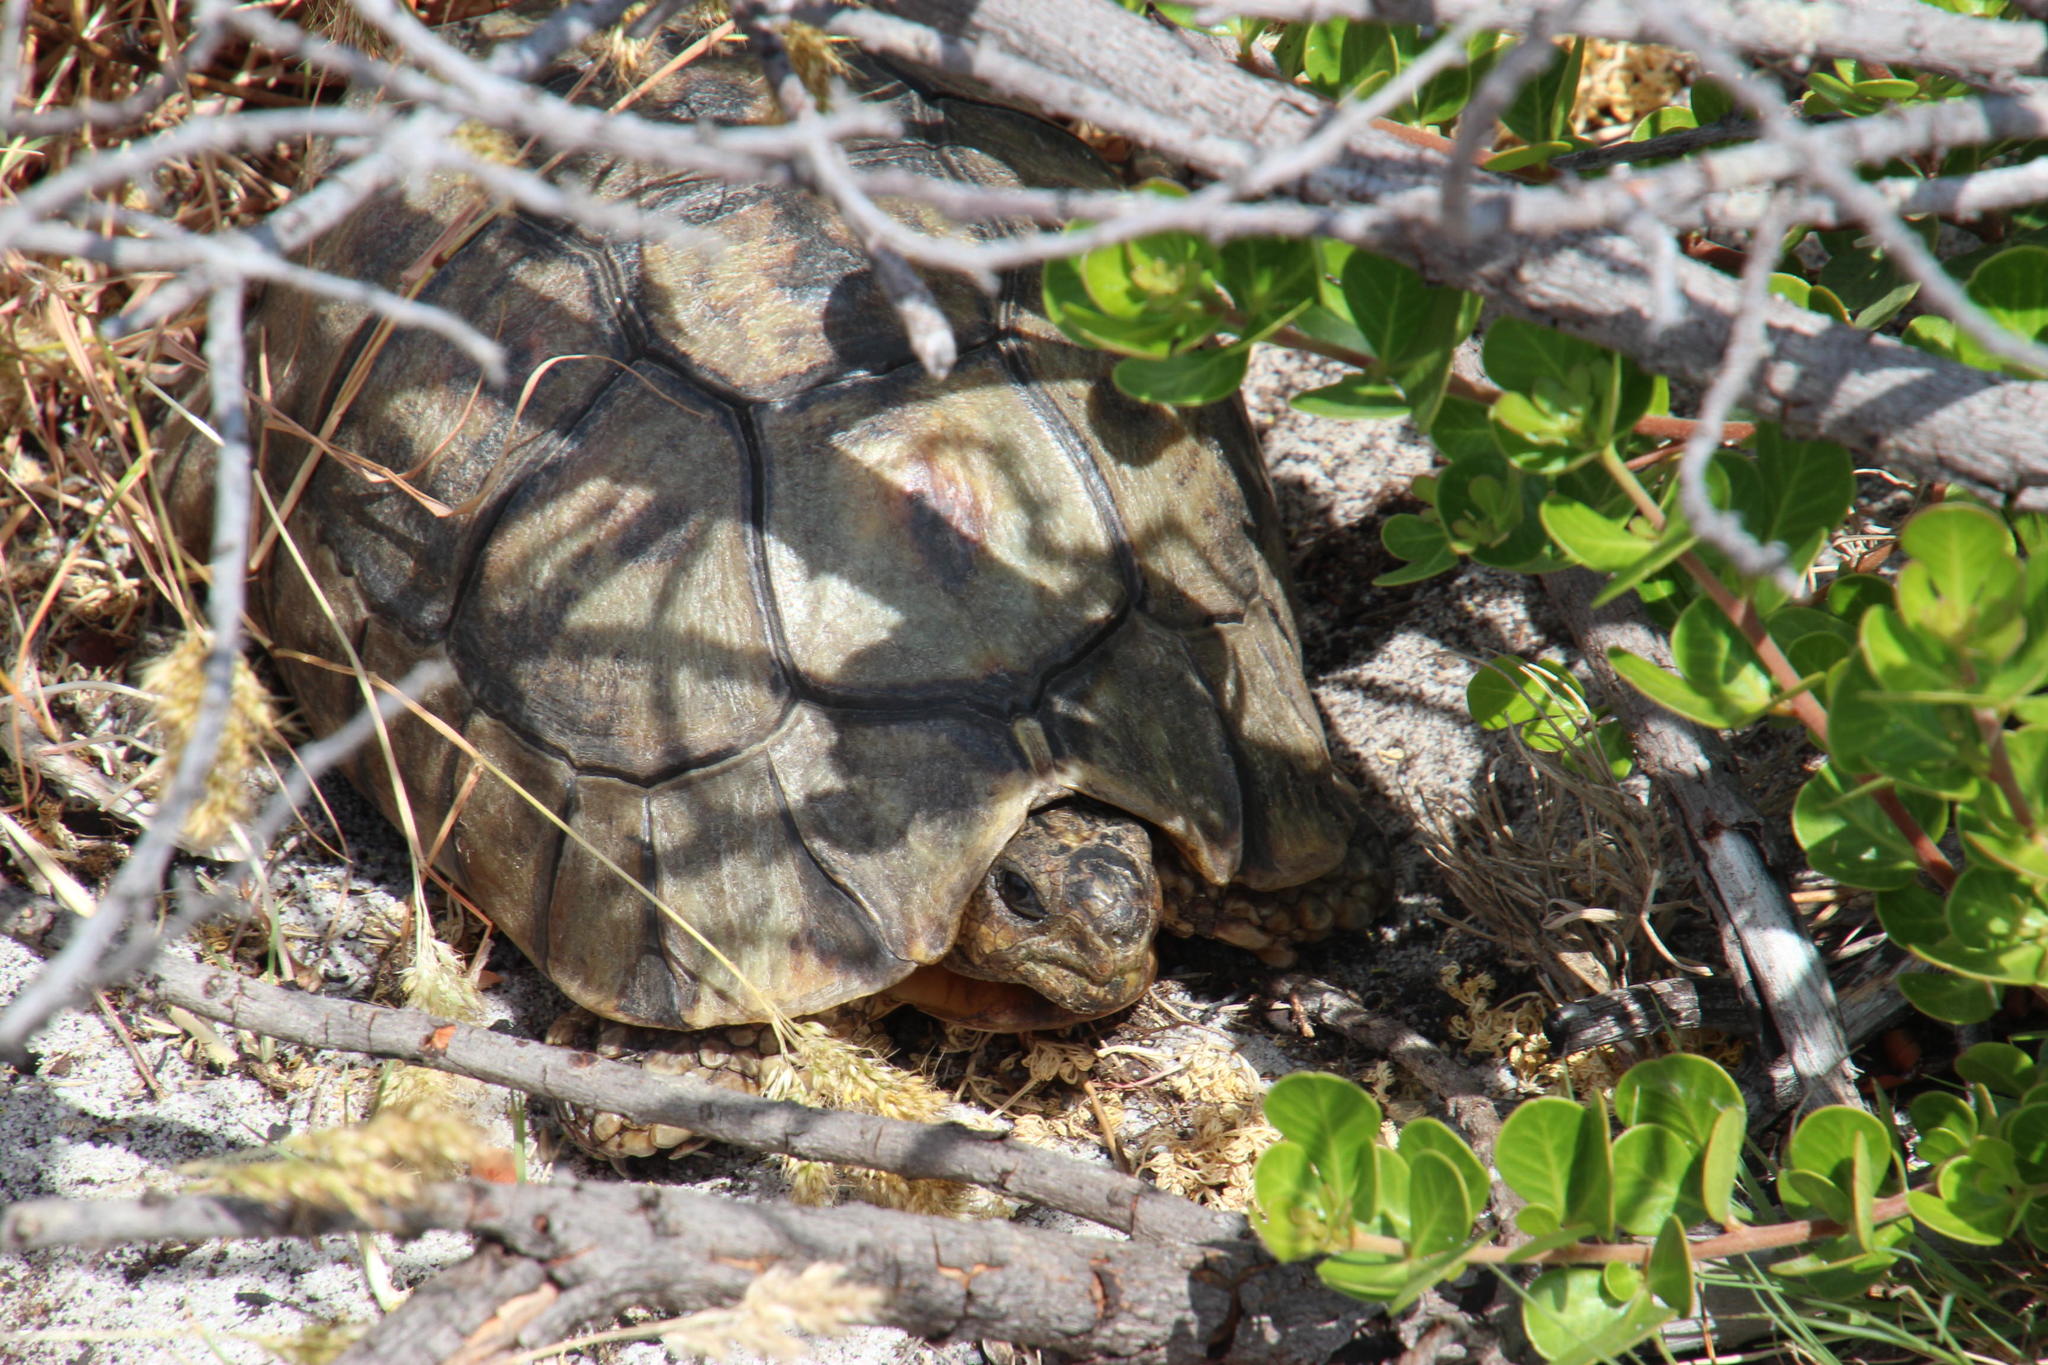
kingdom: Animalia
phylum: Chordata
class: Testudines
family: Testudinidae
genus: Chersina
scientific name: Chersina angulata
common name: South african bowsprit tortoise
